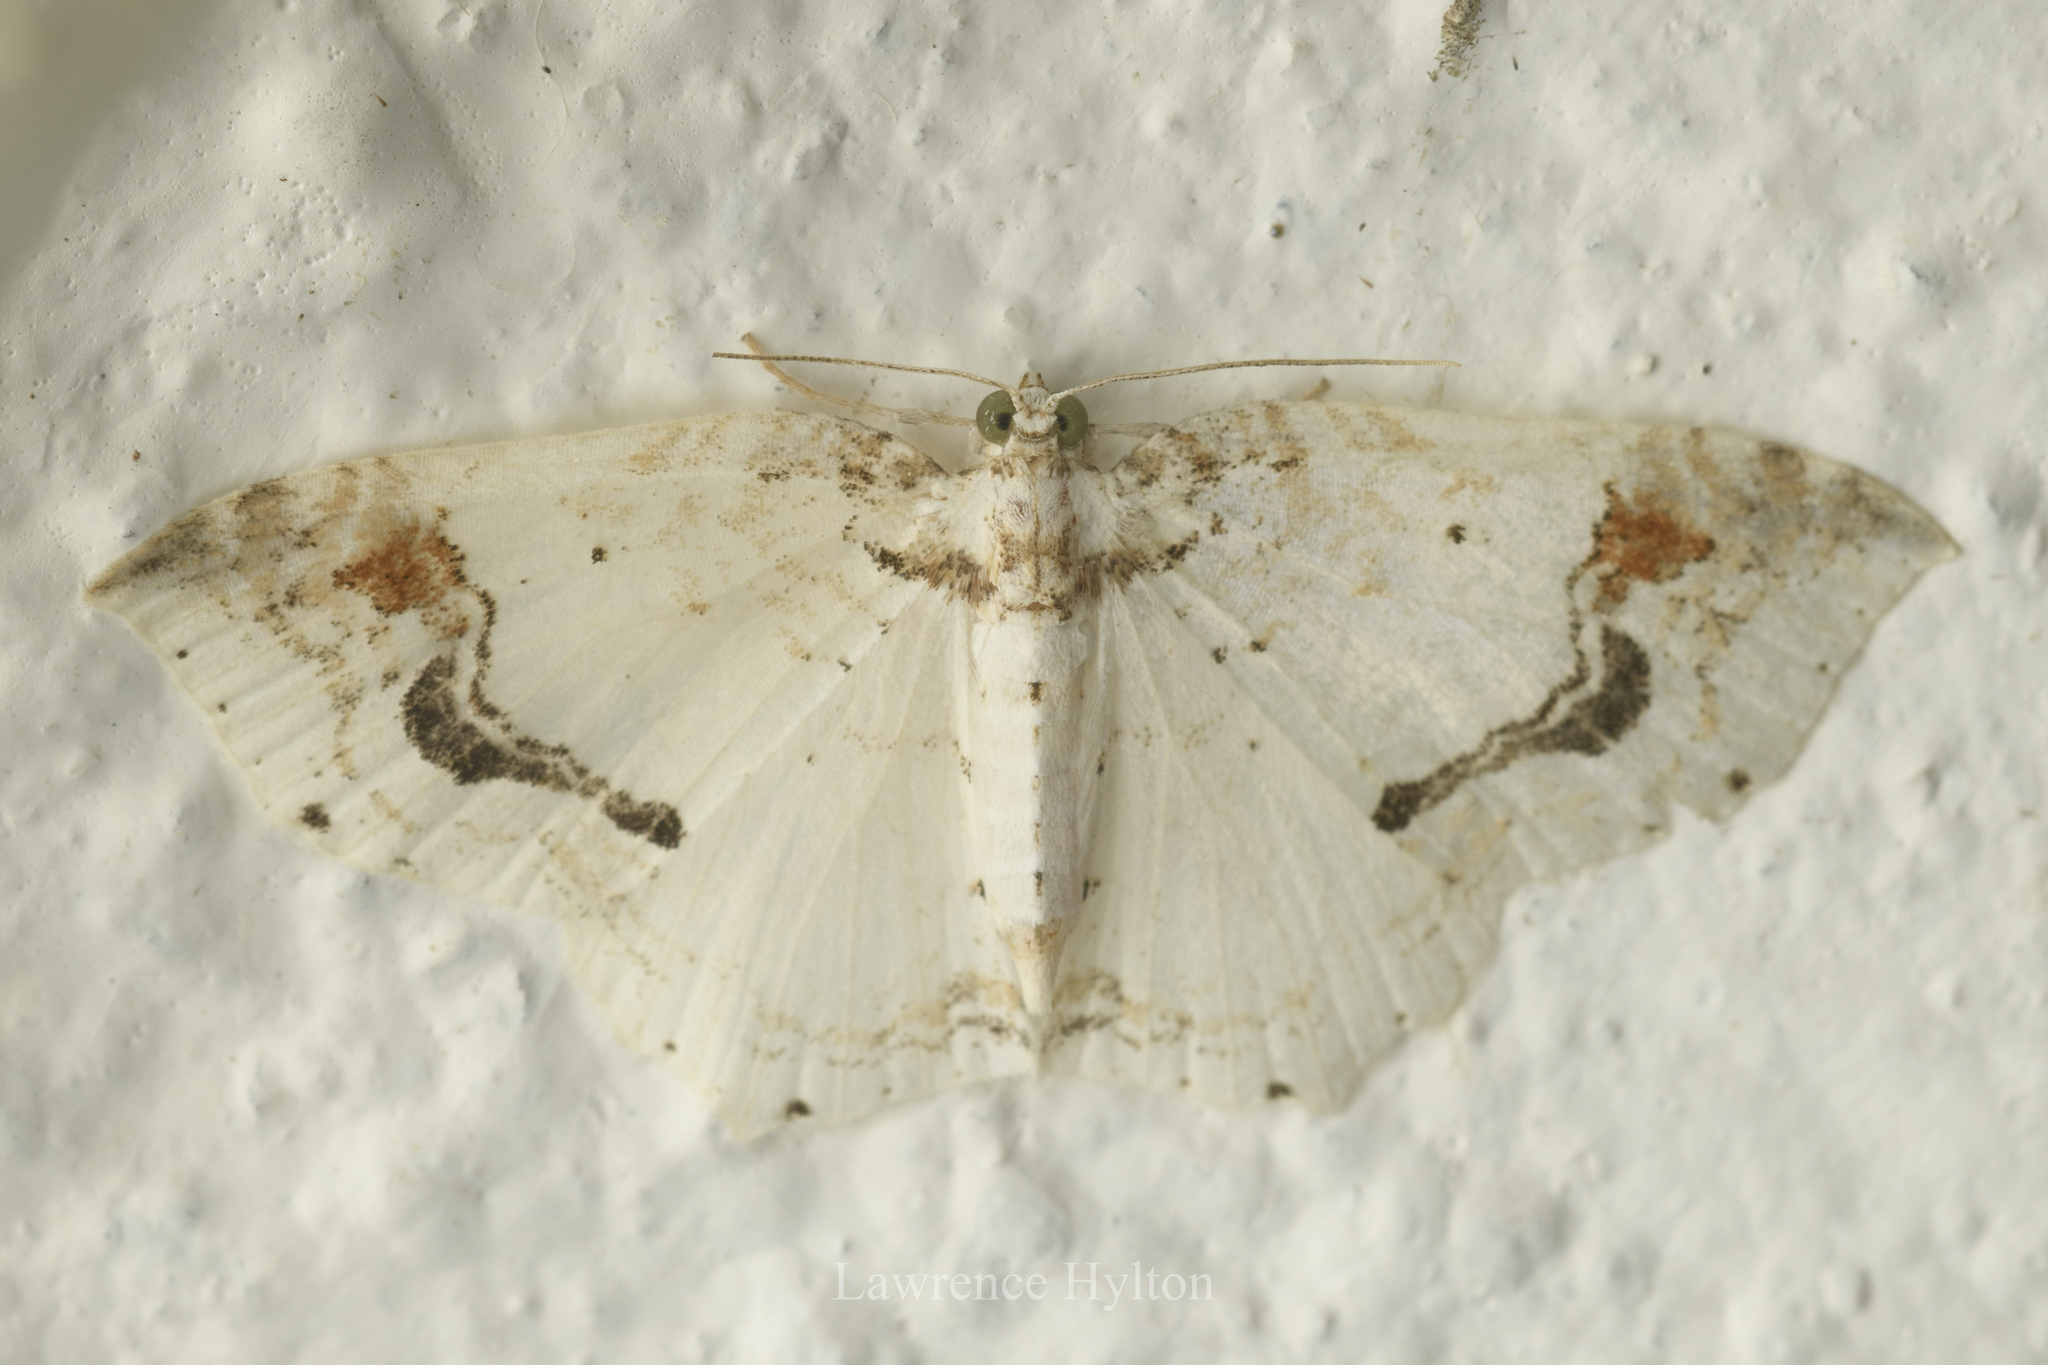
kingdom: Animalia
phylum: Arthropoda
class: Insecta
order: Lepidoptera
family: Geometridae
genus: Asthena
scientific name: Asthena undulata
